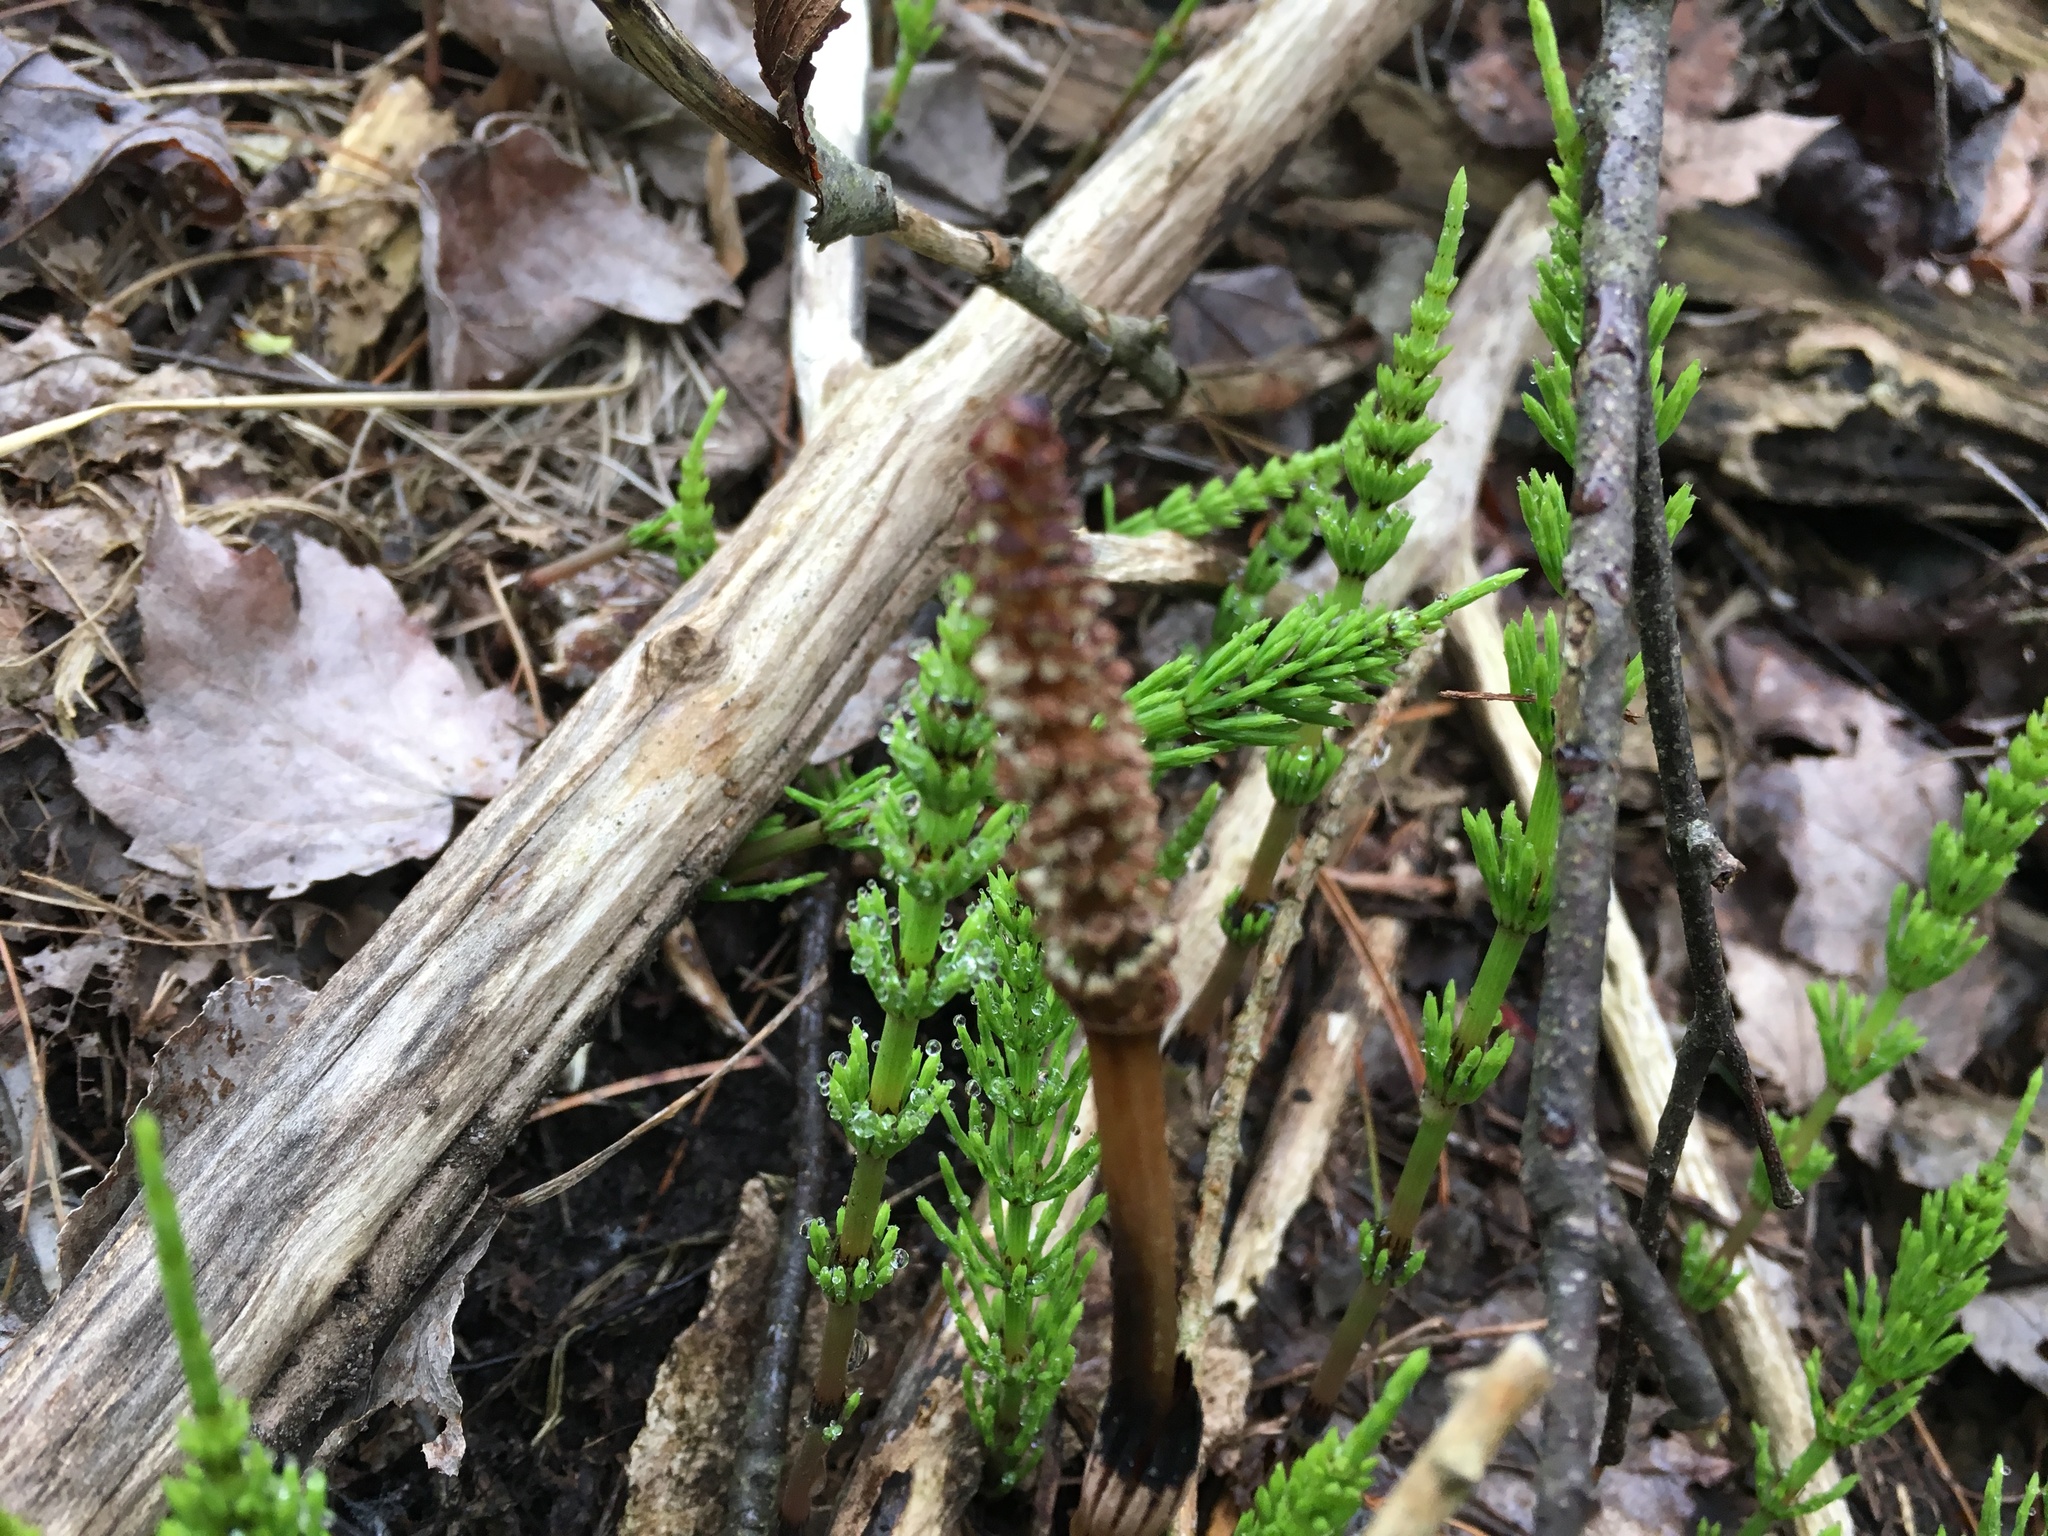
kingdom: Plantae
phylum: Tracheophyta
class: Polypodiopsida
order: Equisetales
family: Equisetaceae
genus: Equisetum
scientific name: Equisetum arvense
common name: Field horsetail
